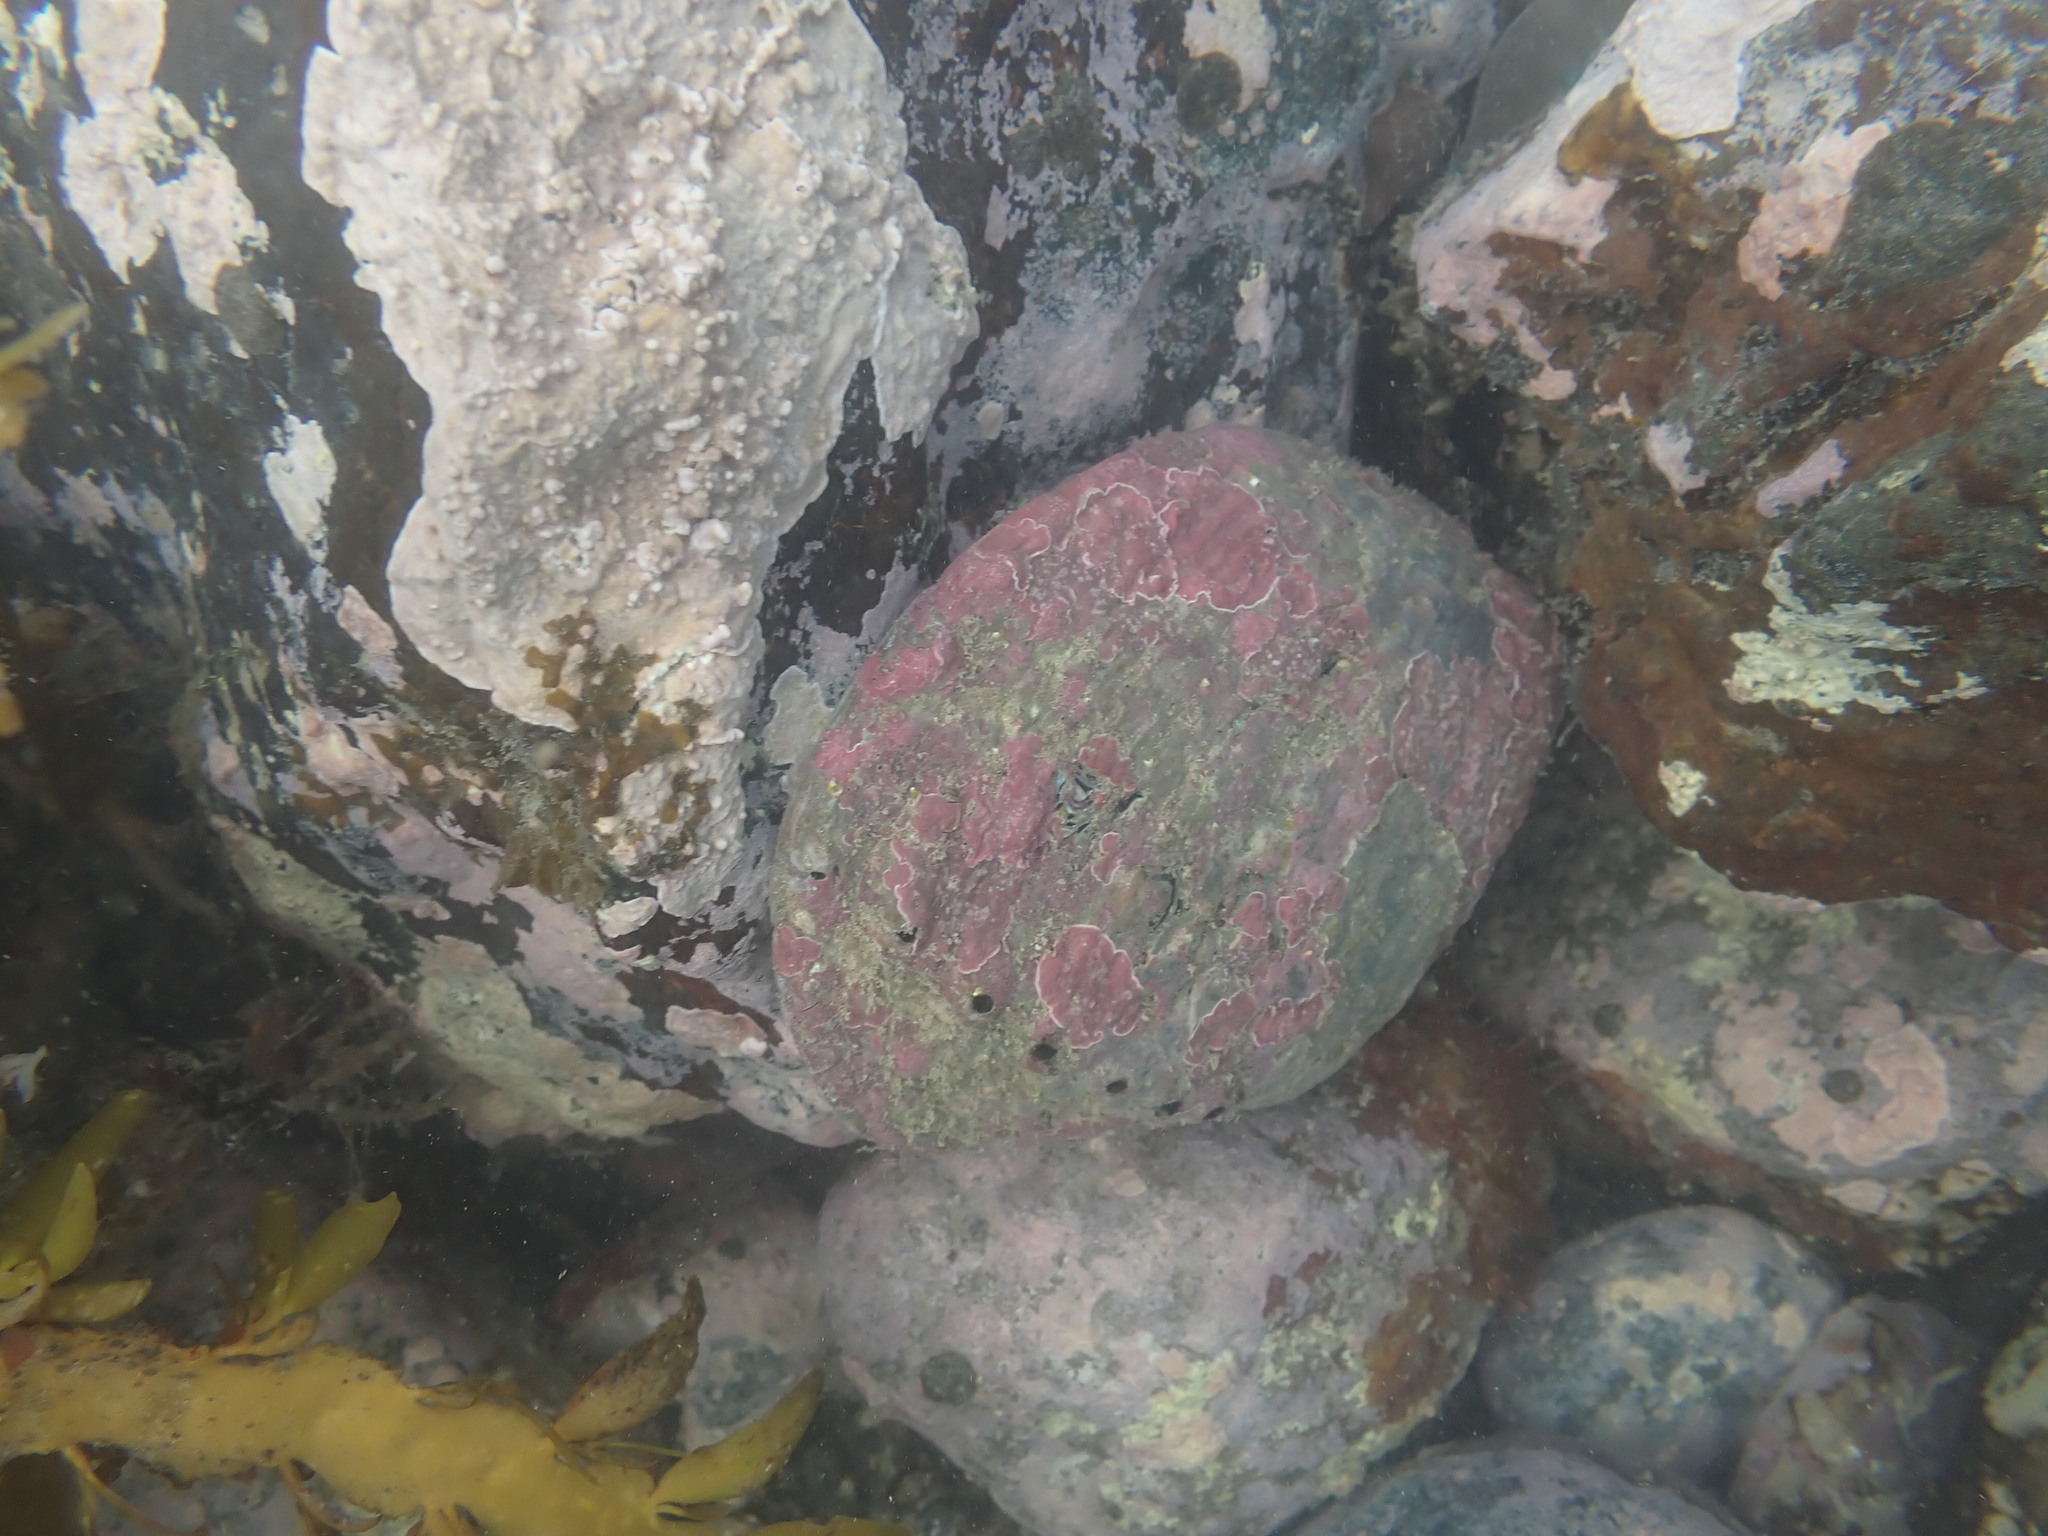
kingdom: Animalia
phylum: Mollusca
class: Gastropoda
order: Lepetellida
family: Haliotidae
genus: Haliotis
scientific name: Haliotis iris
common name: Abalone
